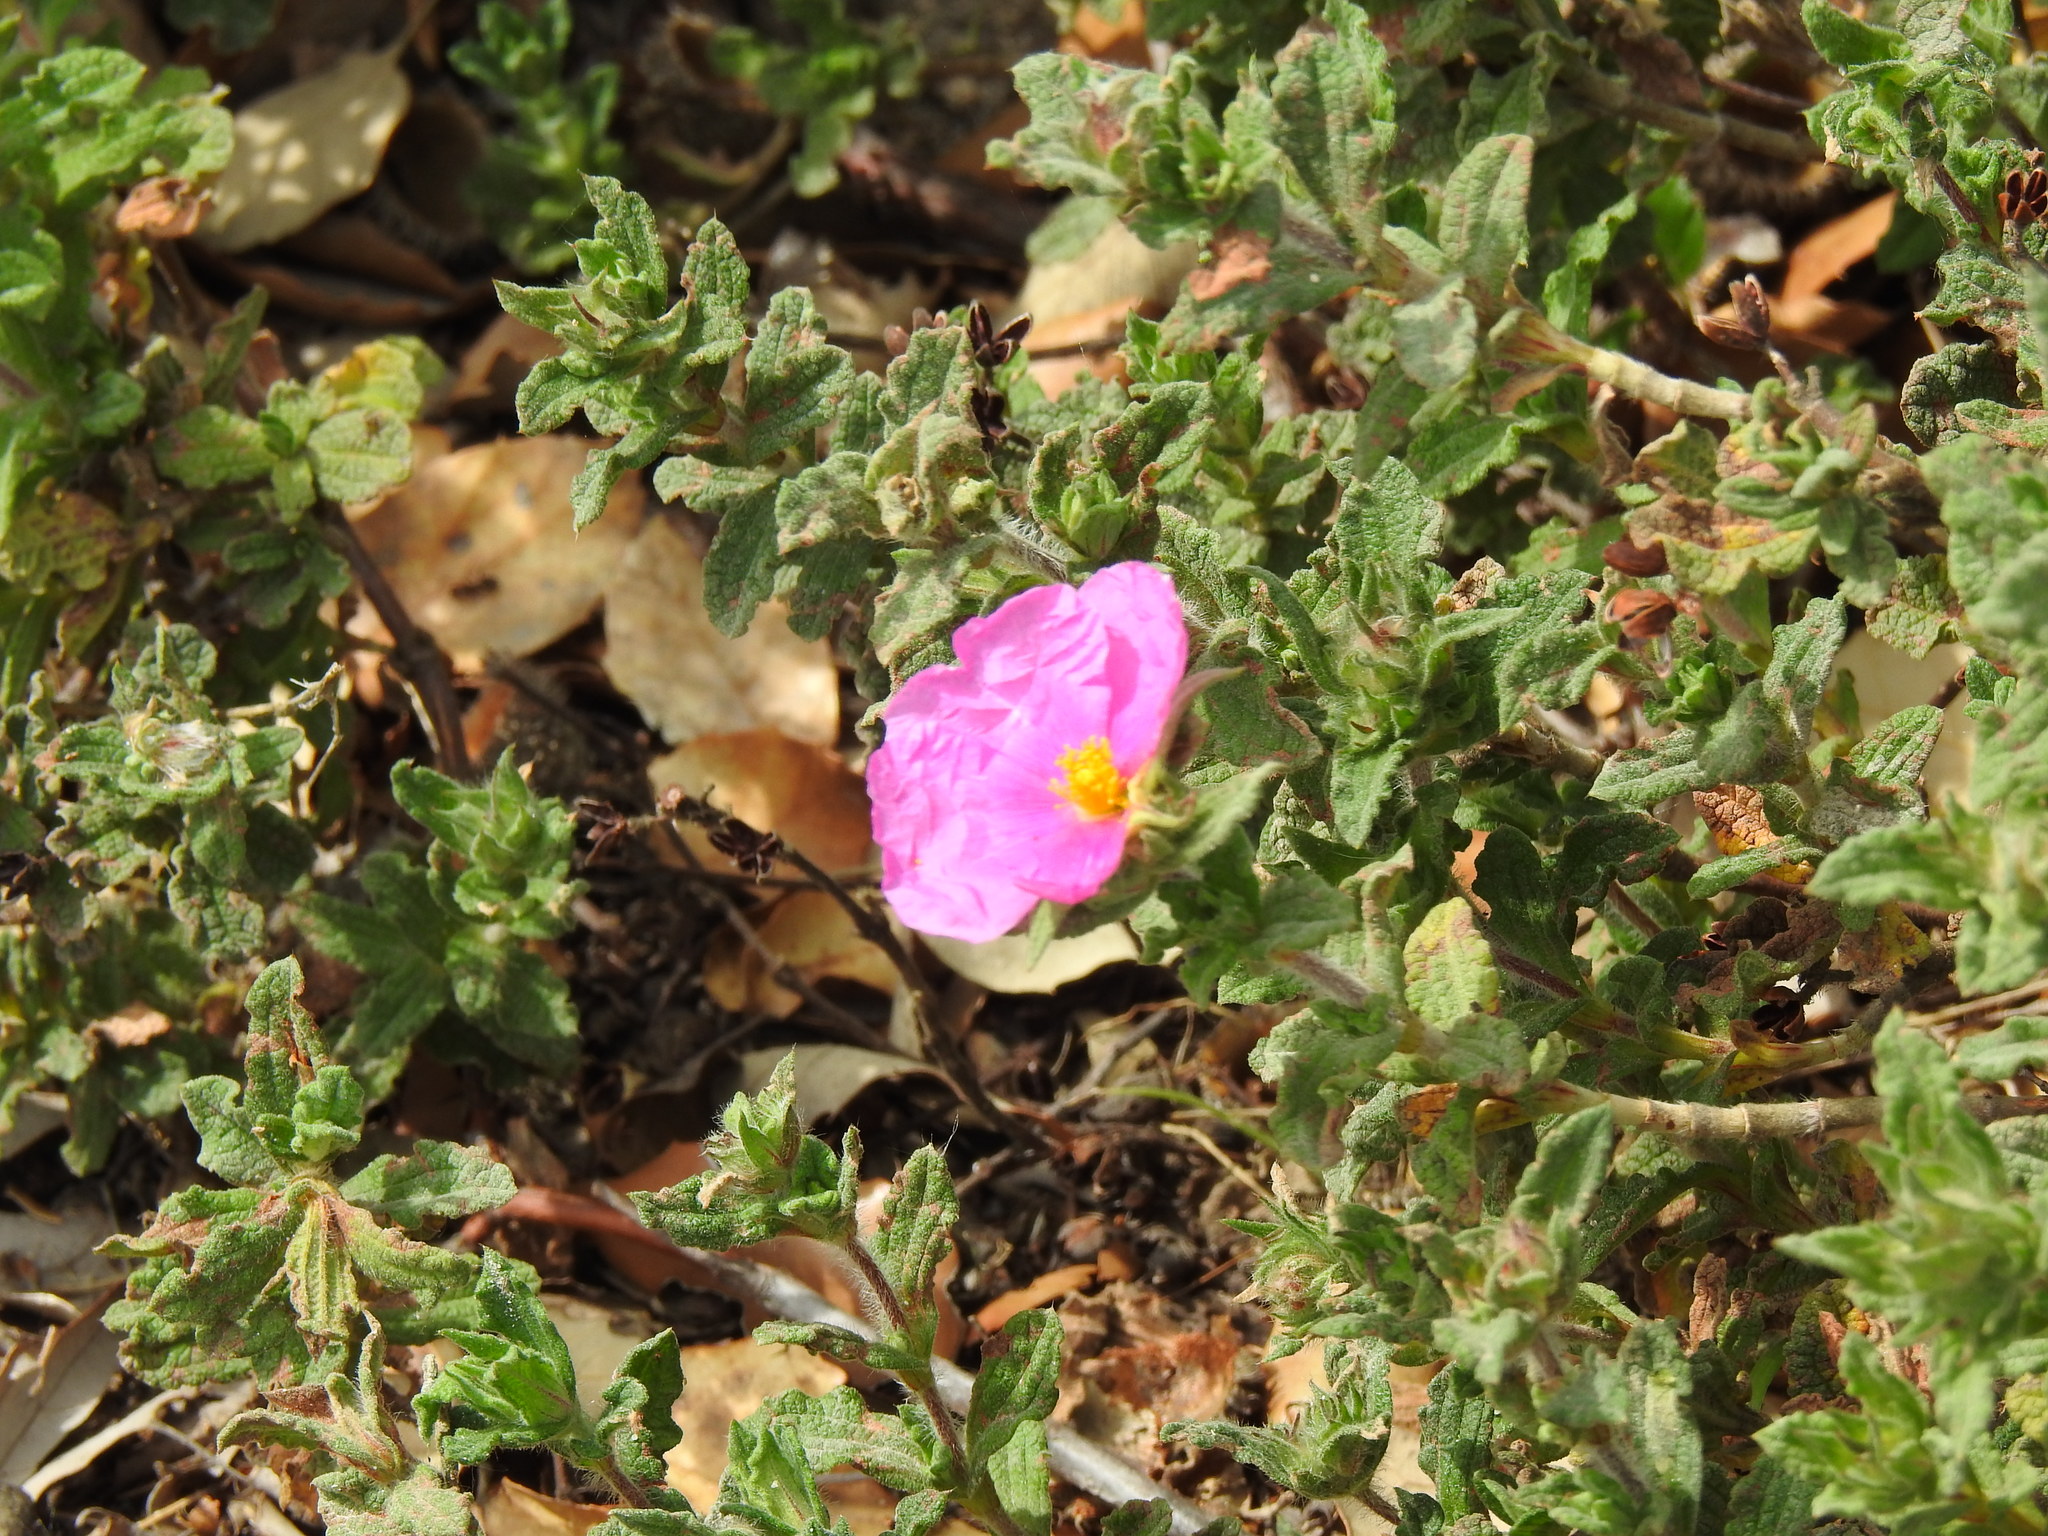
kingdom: Plantae
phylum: Tracheophyta
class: Magnoliopsida
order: Malvales
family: Cistaceae
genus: Cistus
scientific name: Cistus crispus
